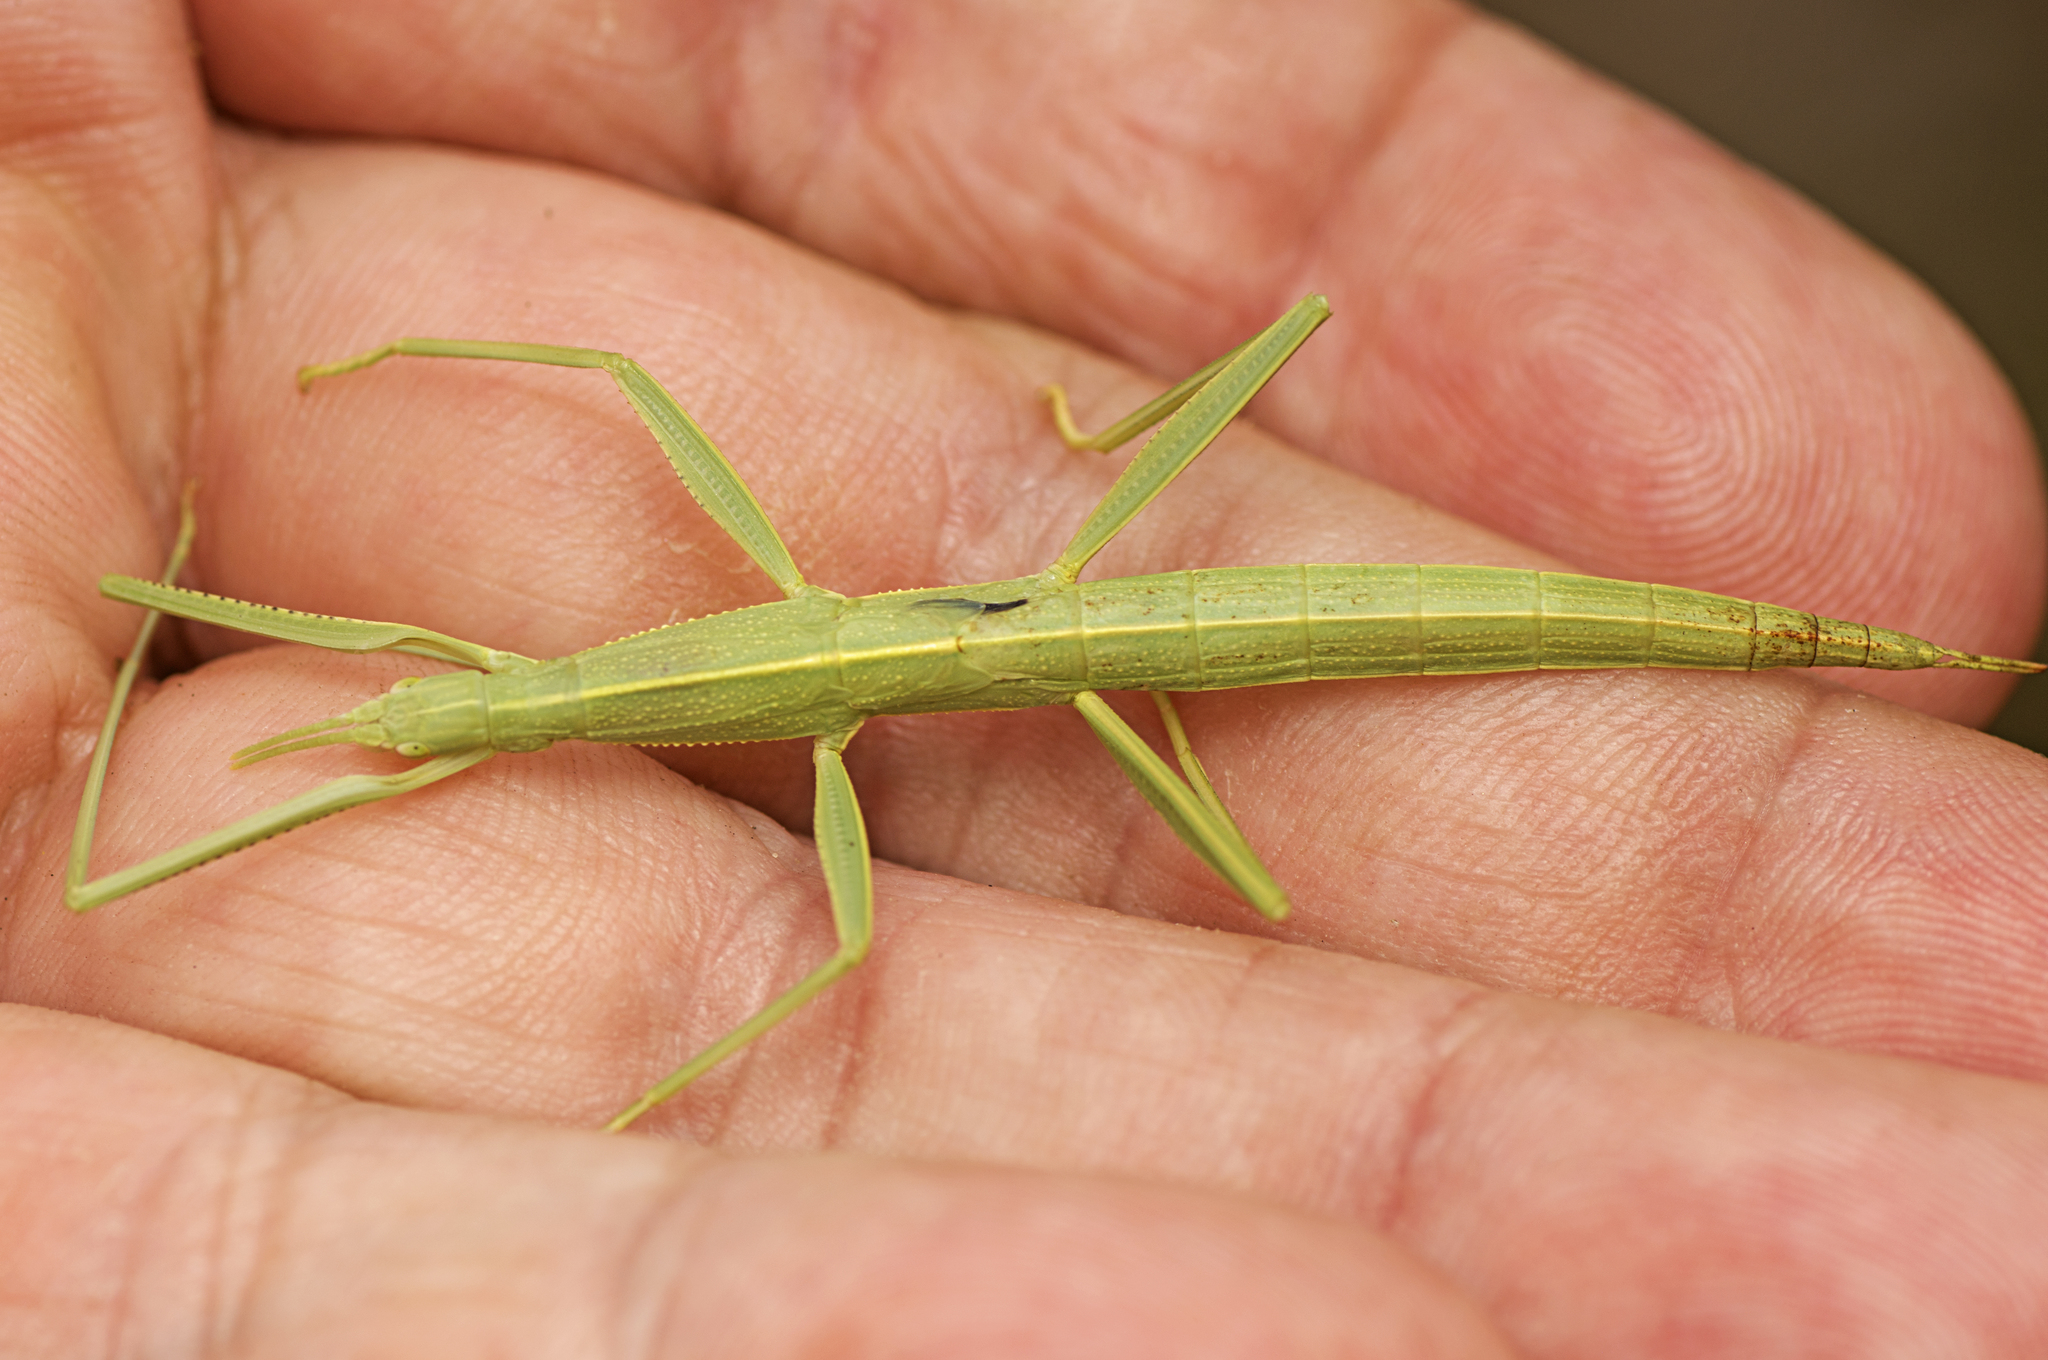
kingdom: Animalia
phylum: Arthropoda
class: Insecta
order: Phasmida
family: Phasmatidae
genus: Tropidoderus
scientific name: Tropidoderus childrenii
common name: Children's stick insect
